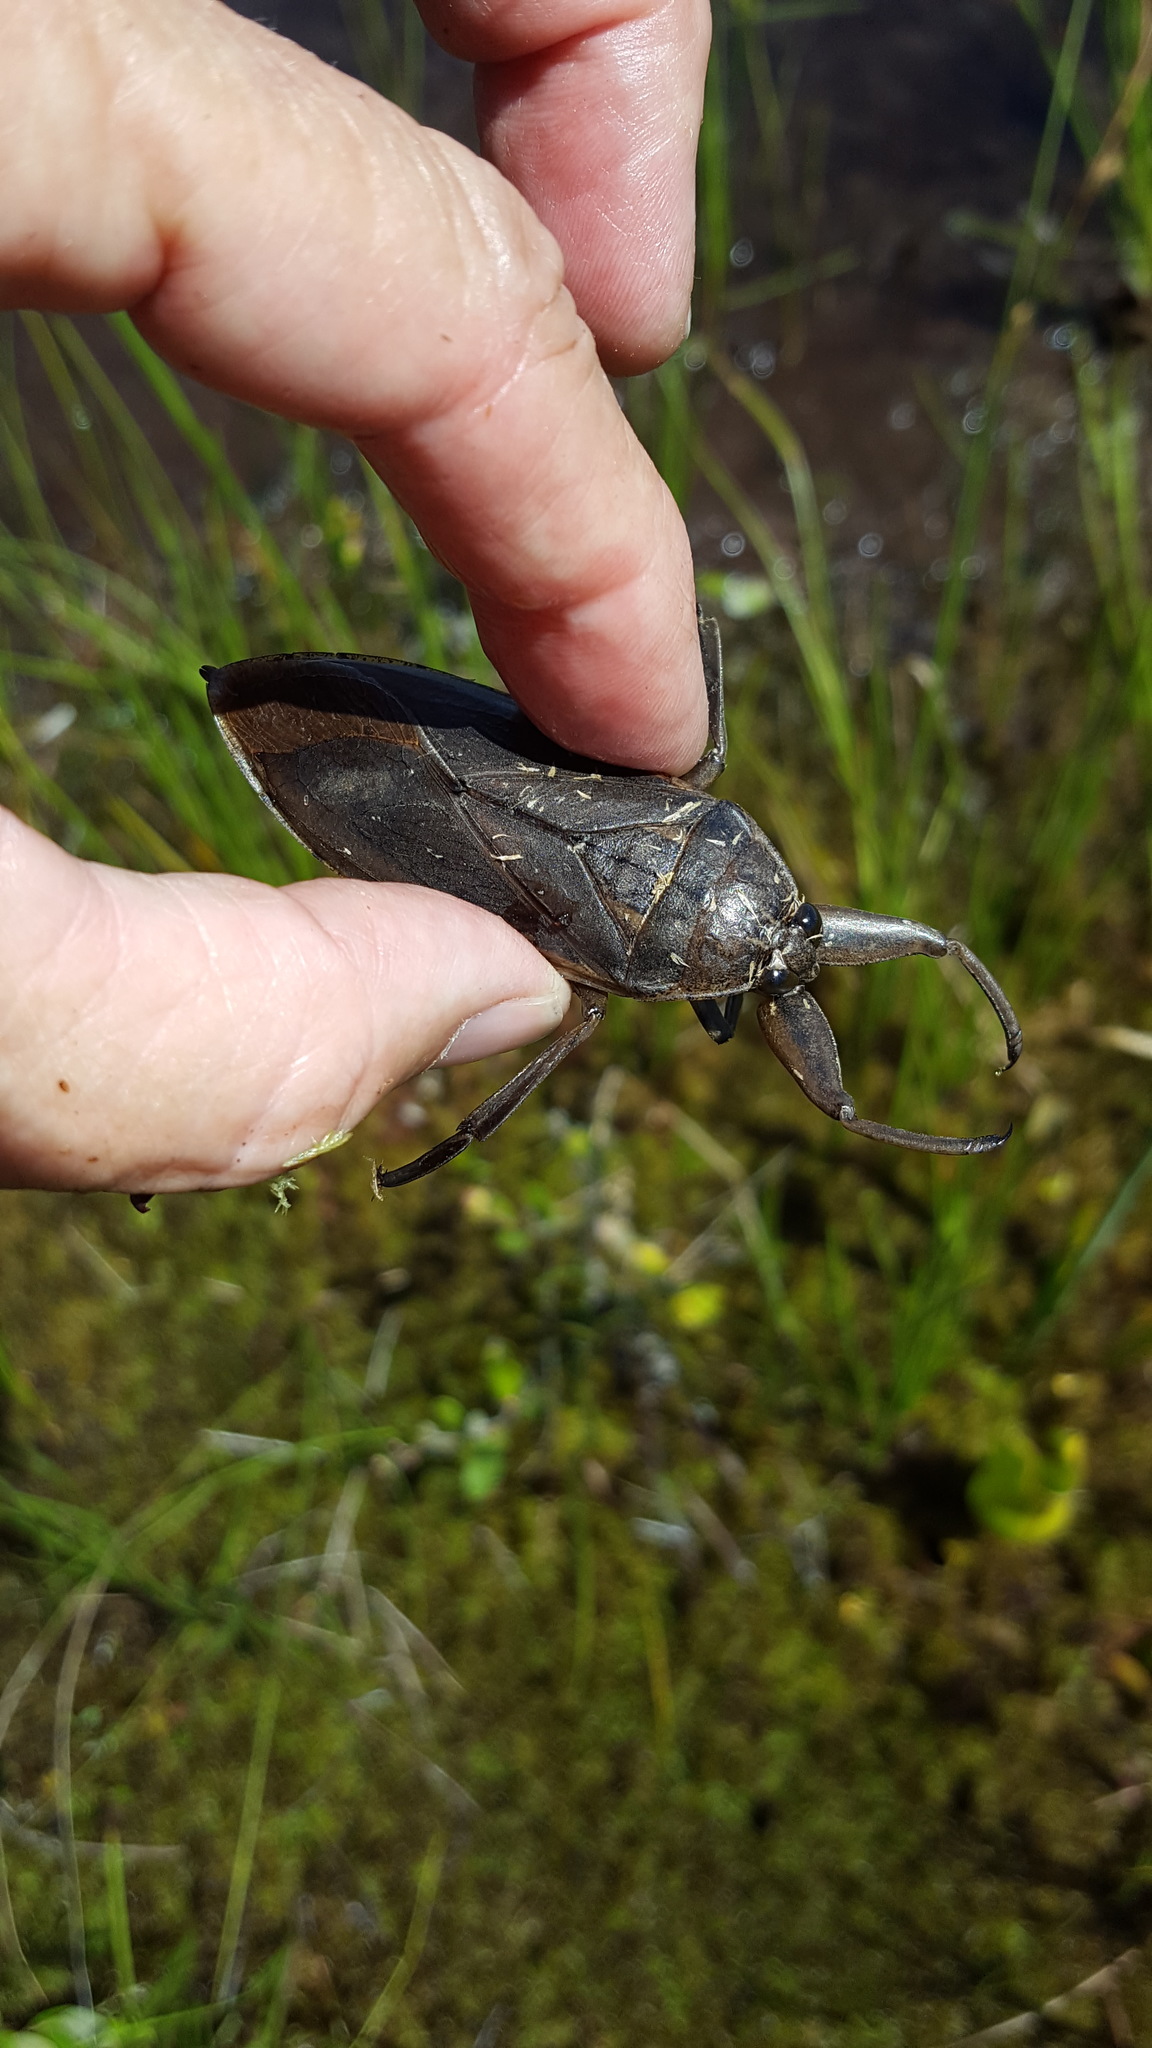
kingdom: Animalia
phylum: Arthropoda
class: Insecta
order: Hemiptera
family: Belostomatidae
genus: Lethocerus
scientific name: Lethocerus americanus
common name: Giant water bug
